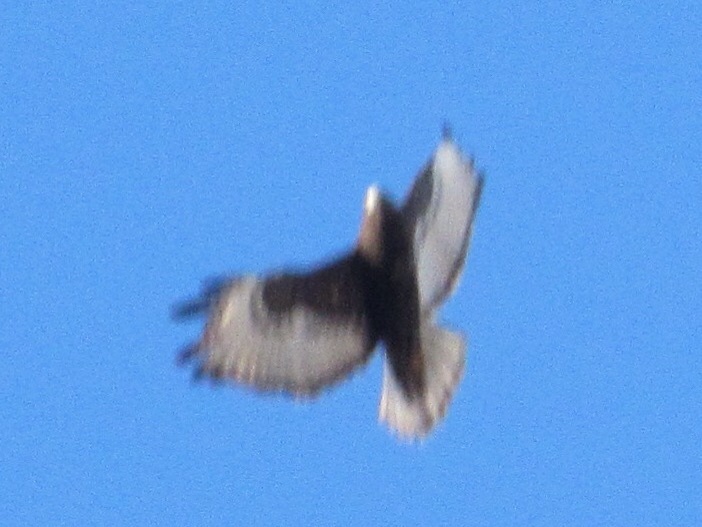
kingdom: Animalia
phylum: Chordata
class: Aves
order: Accipitriformes
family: Accipitridae
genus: Buteo
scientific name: Buteo jamaicensis
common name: Red-tailed hawk
